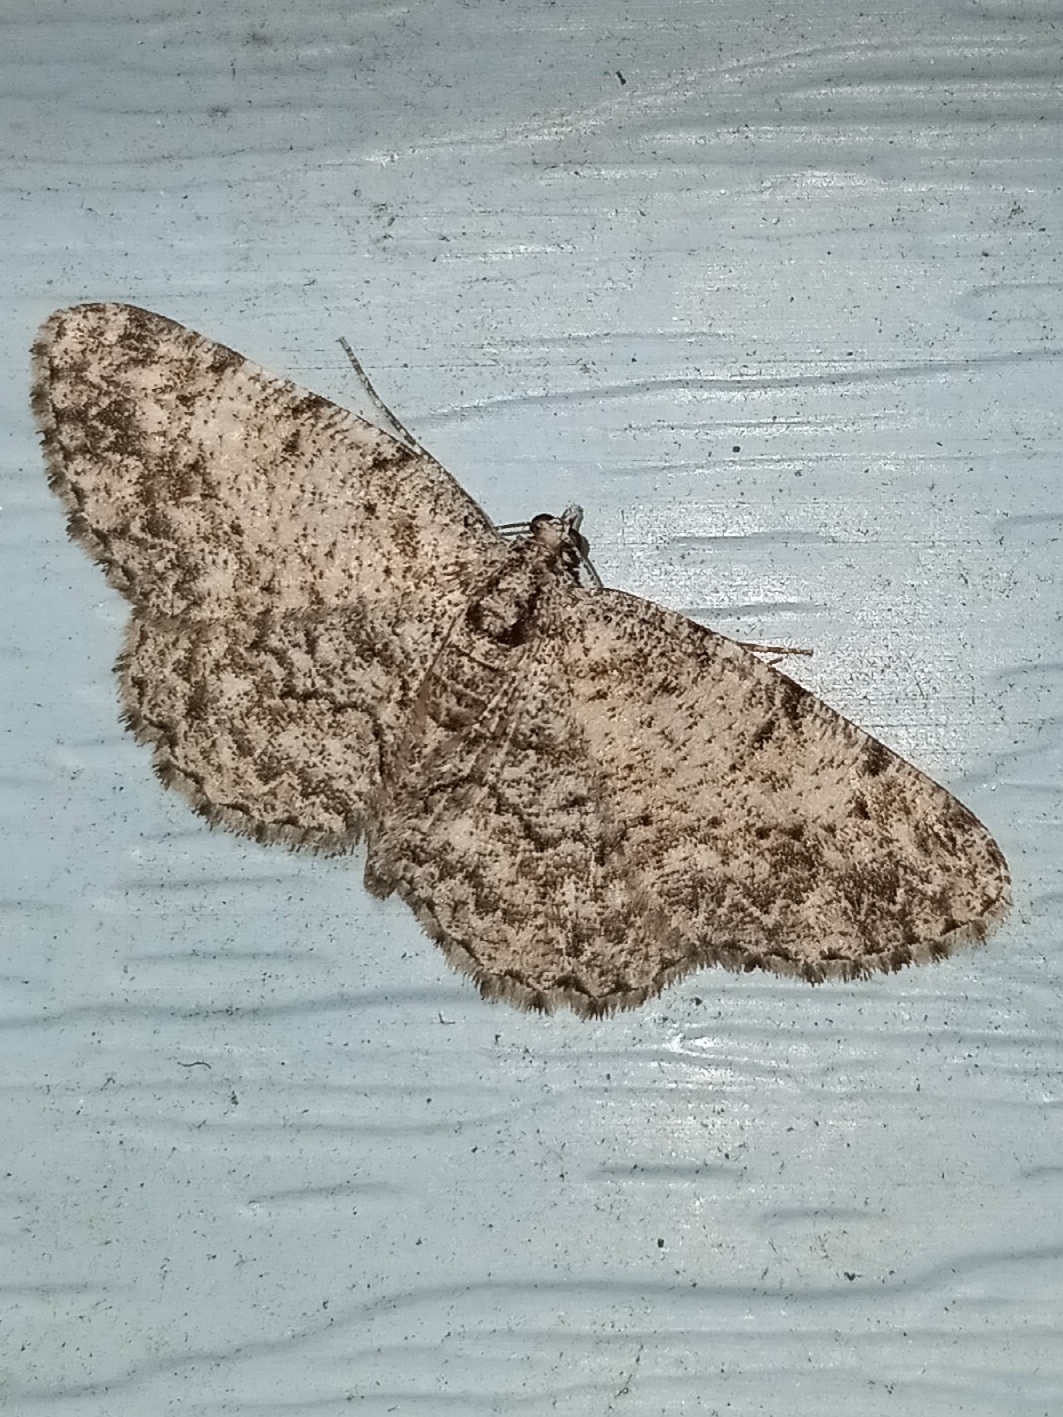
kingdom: Animalia
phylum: Arthropoda
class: Insecta
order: Lepidoptera
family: Geometridae
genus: Protoboarmia
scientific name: Protoboarmia porcelaria
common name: Porcelain gray
